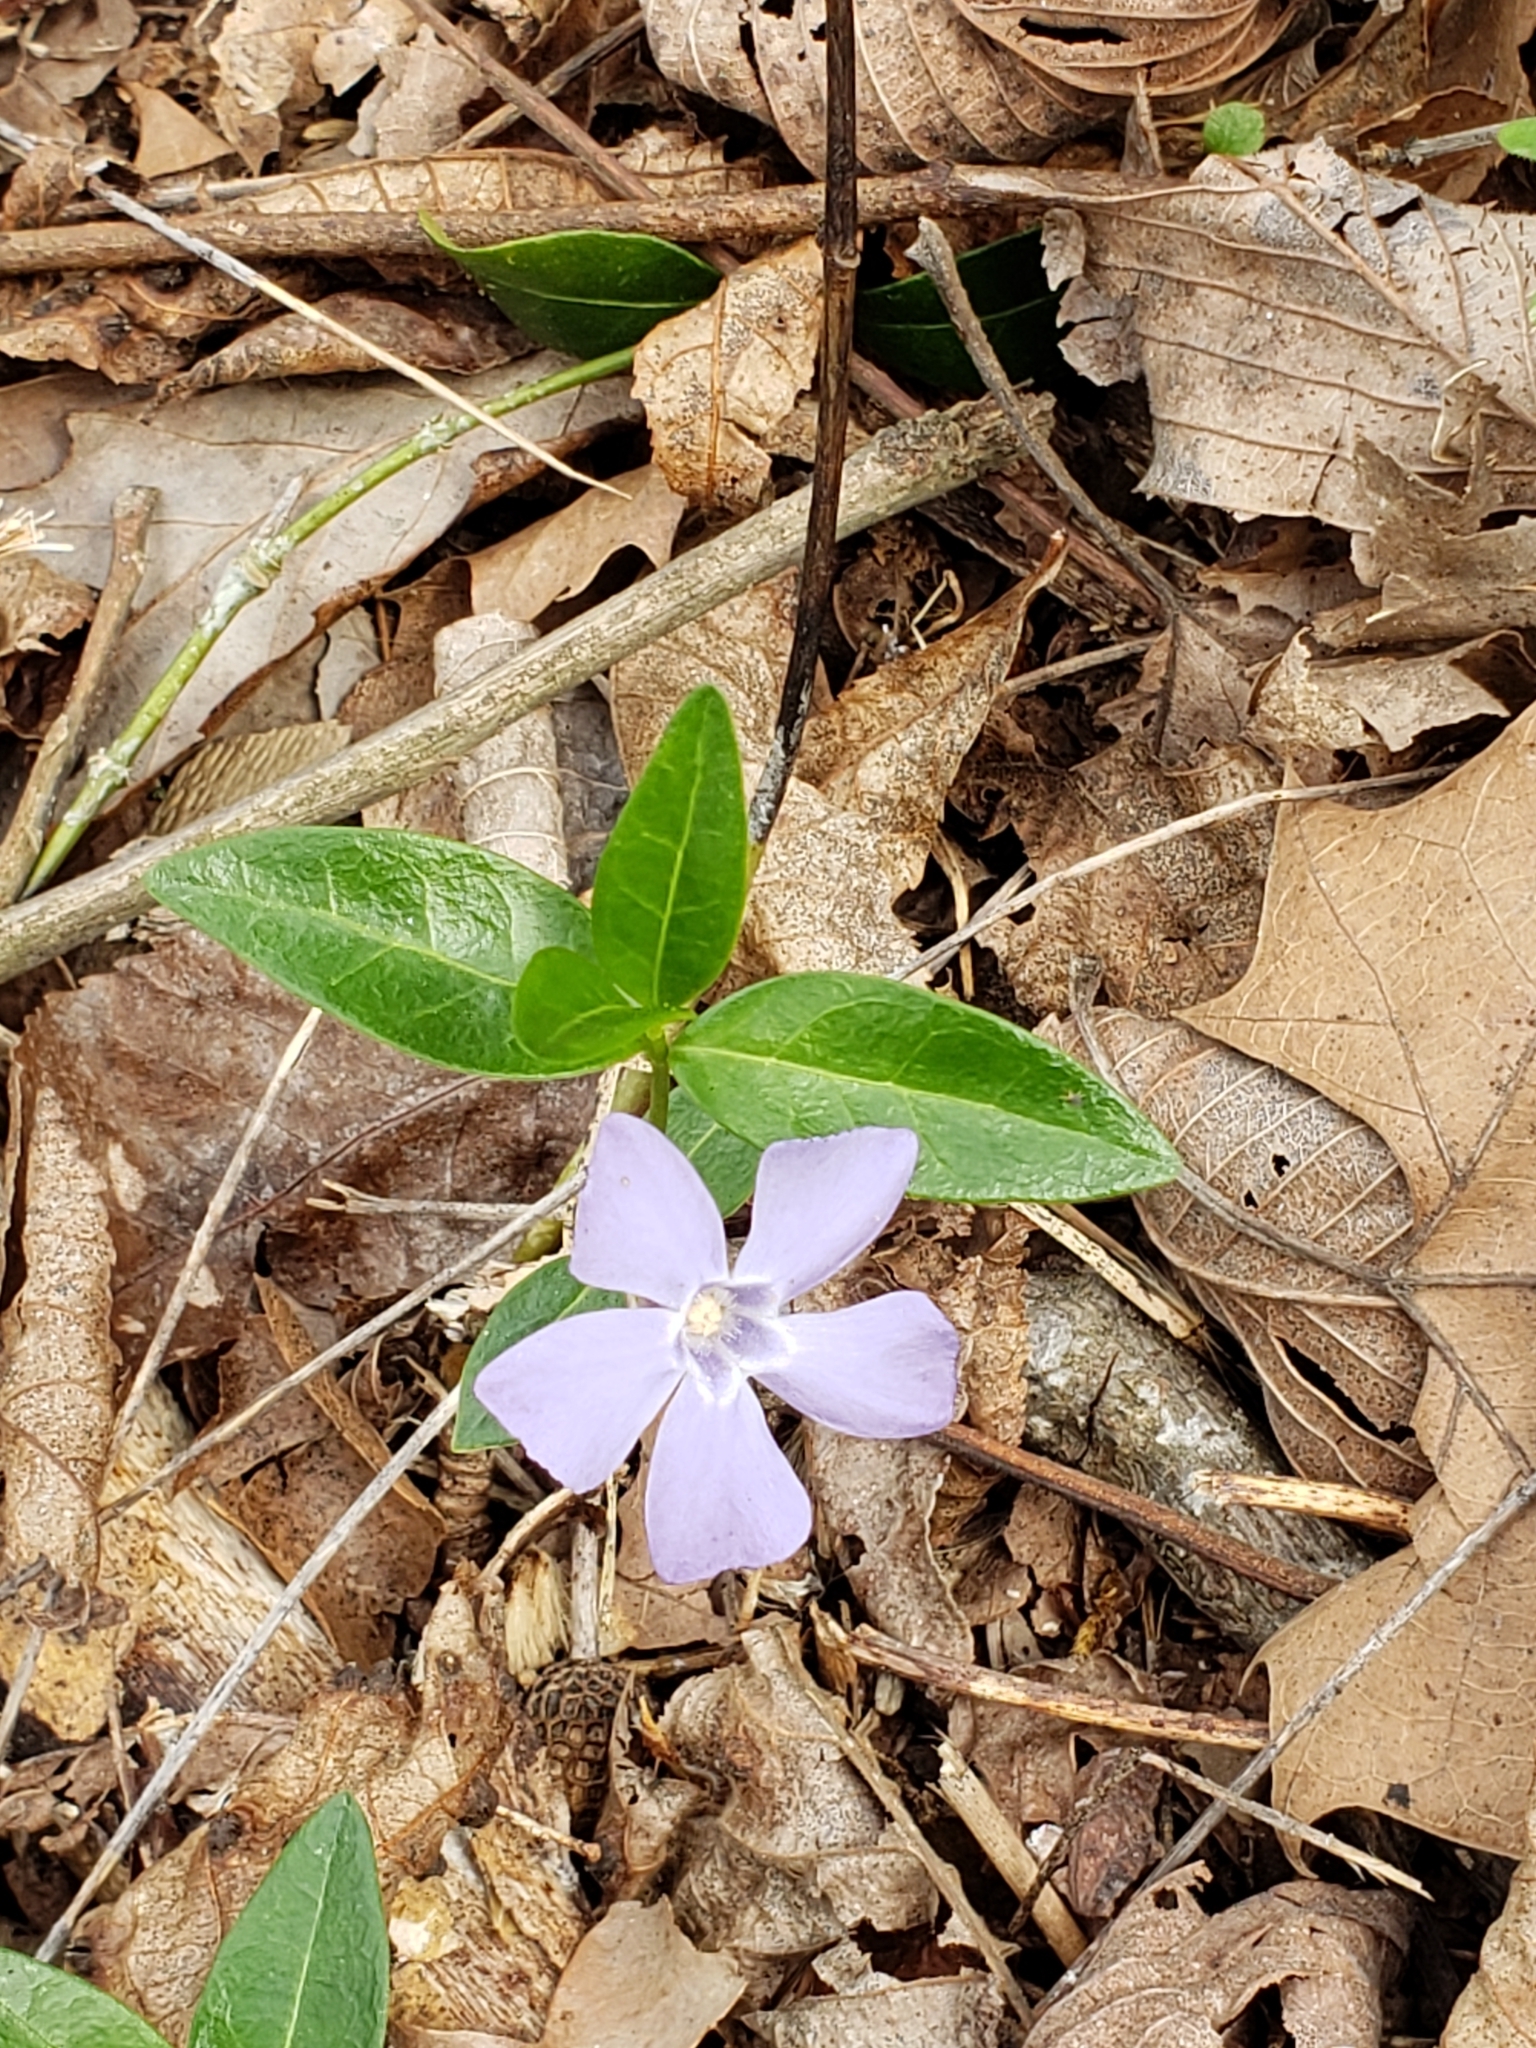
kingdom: Plantae
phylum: Tracheophyta
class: Magnoliopsida
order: Gentianales
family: Apocynaceae
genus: Vinca
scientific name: Vinca minor
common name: Lesser periwinkle
